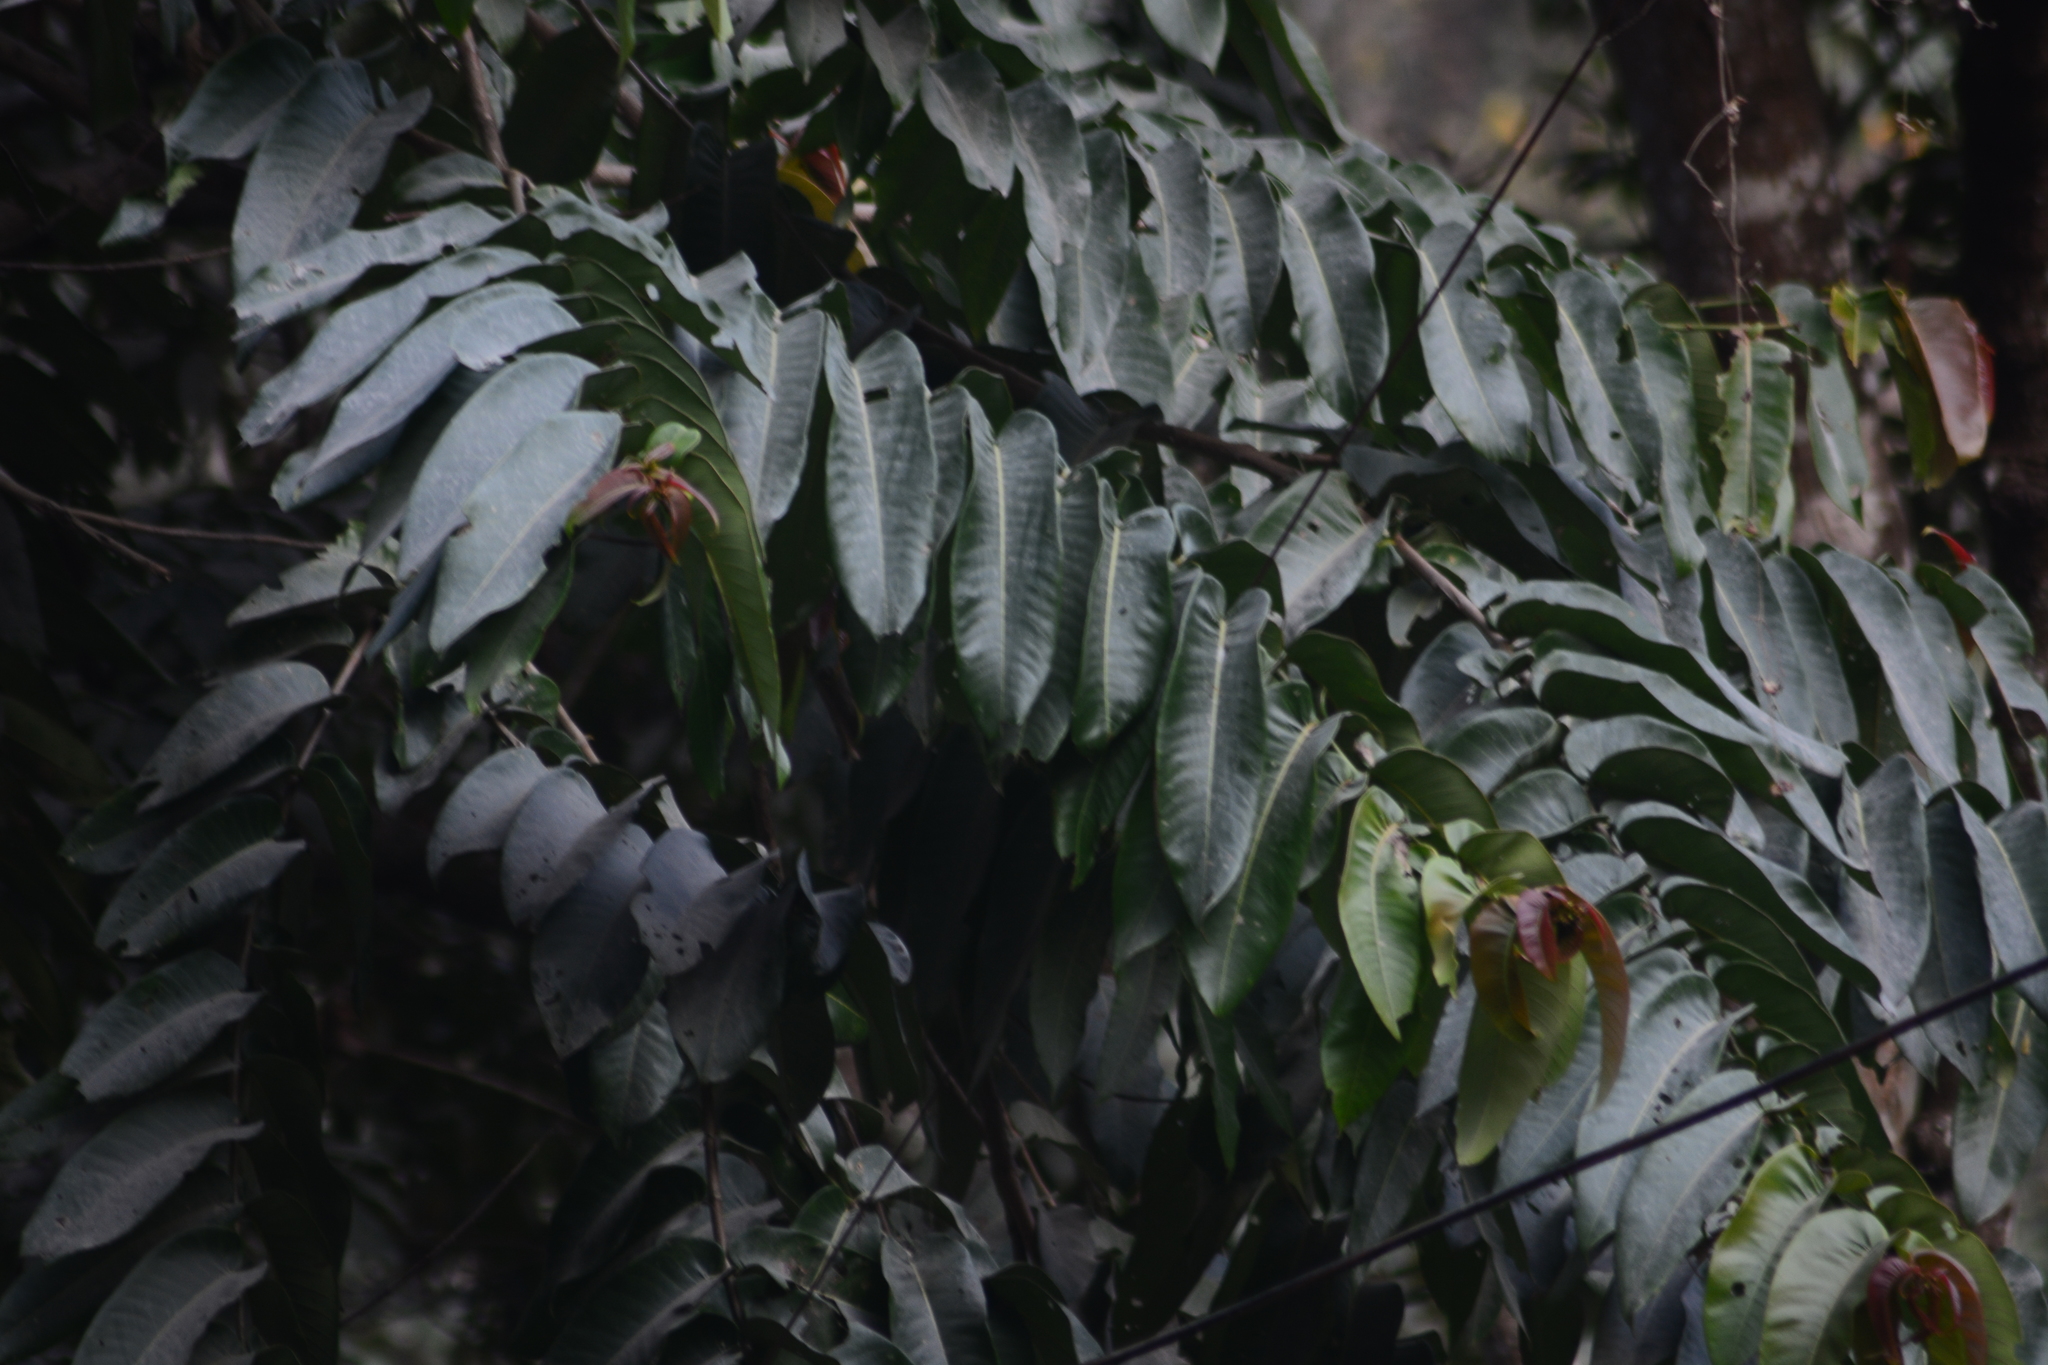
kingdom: Plantae
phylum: Tracheophyta
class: Magnoliopsida
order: Myrtales
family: Lythraceae
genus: Duabanga
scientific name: Duabanga grandiflora
